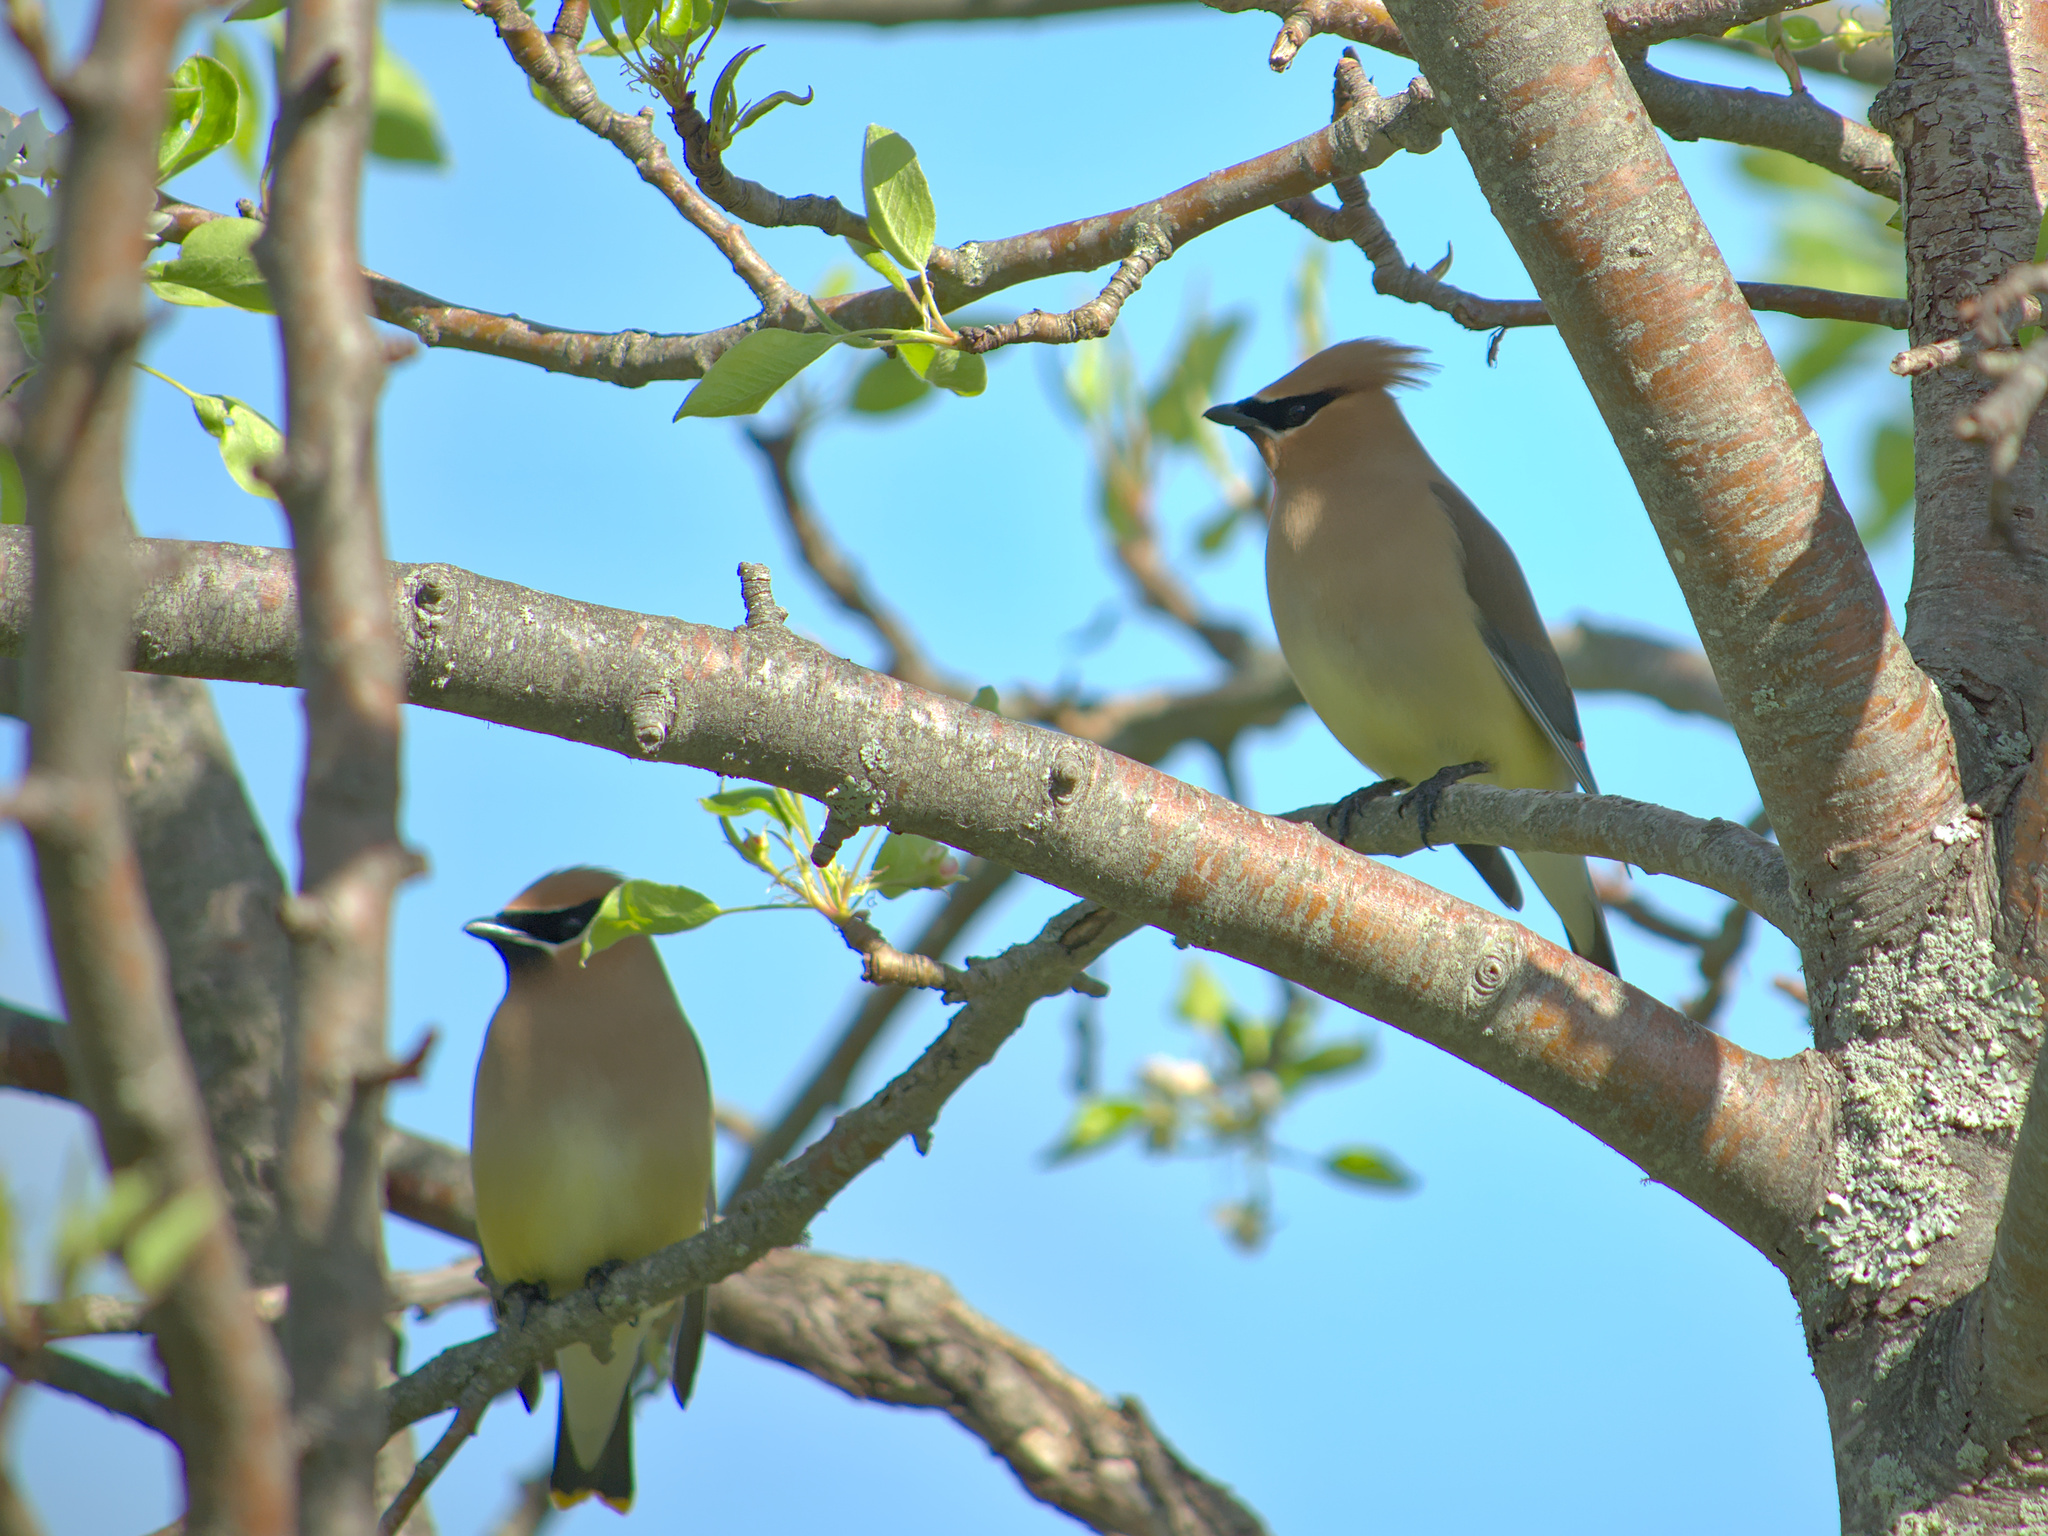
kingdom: Animalia
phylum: Chordata
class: Aves
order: Passeriformes
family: Bombycillidae
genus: Bombycilla
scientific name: Bombycilla cedrorum
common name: Cedar waxwing
